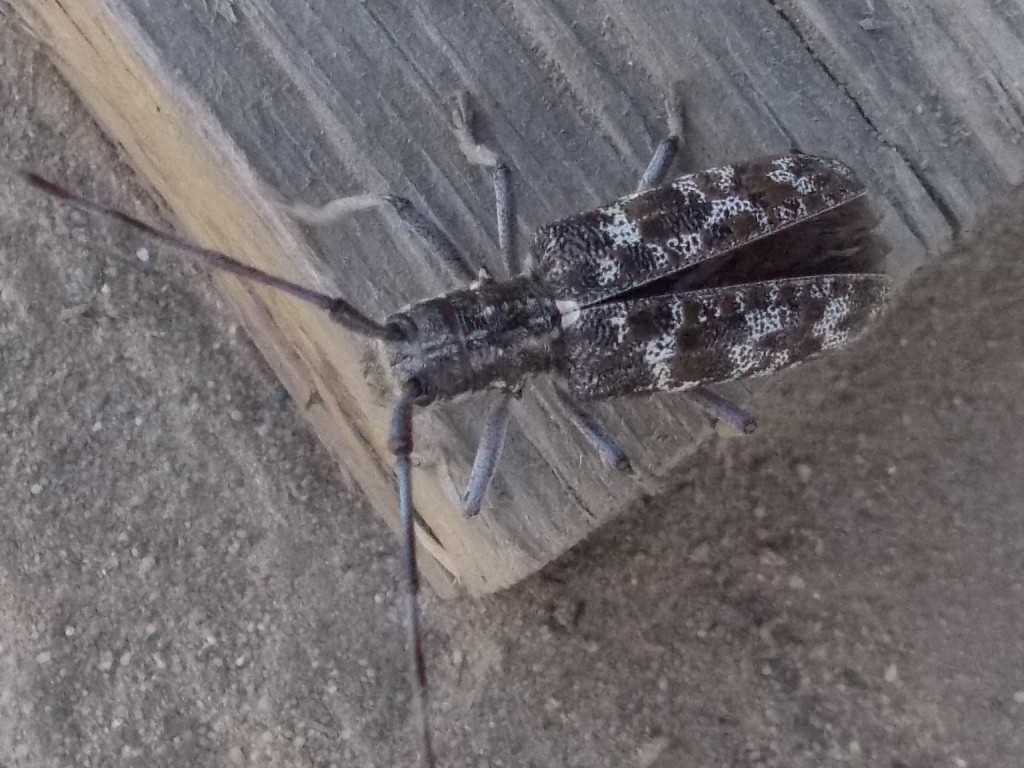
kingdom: Animalia
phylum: Arthropoda
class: Insecta
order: Coleoptera
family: Cerambycidae
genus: Monochamus
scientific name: Monochamus clamator
